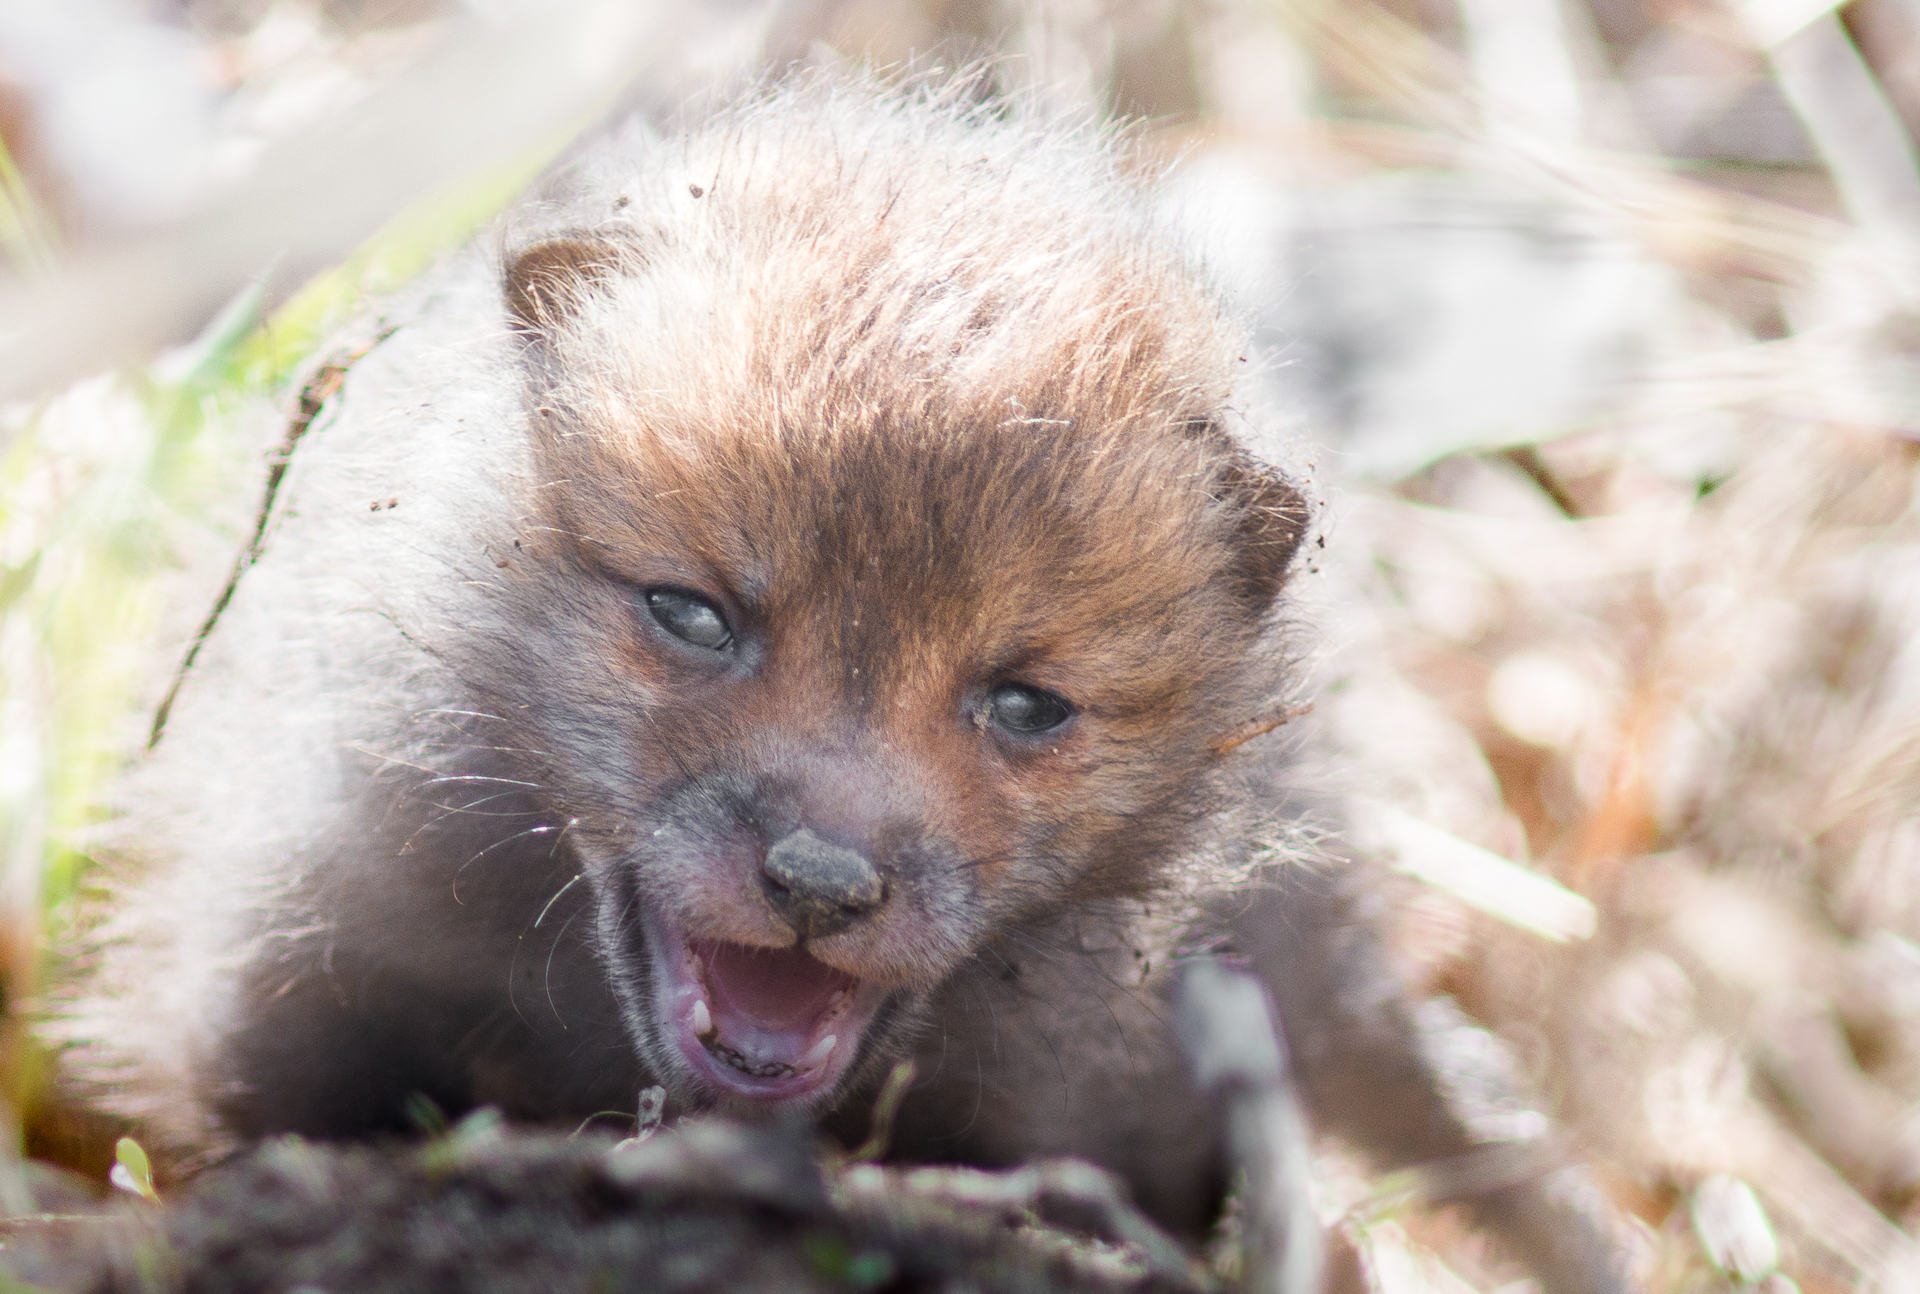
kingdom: Animalia
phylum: Chordata
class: Mammalia
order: Carnivora
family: Canidae
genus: Vulpes
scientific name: Vulpes vulpes
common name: Red fox
